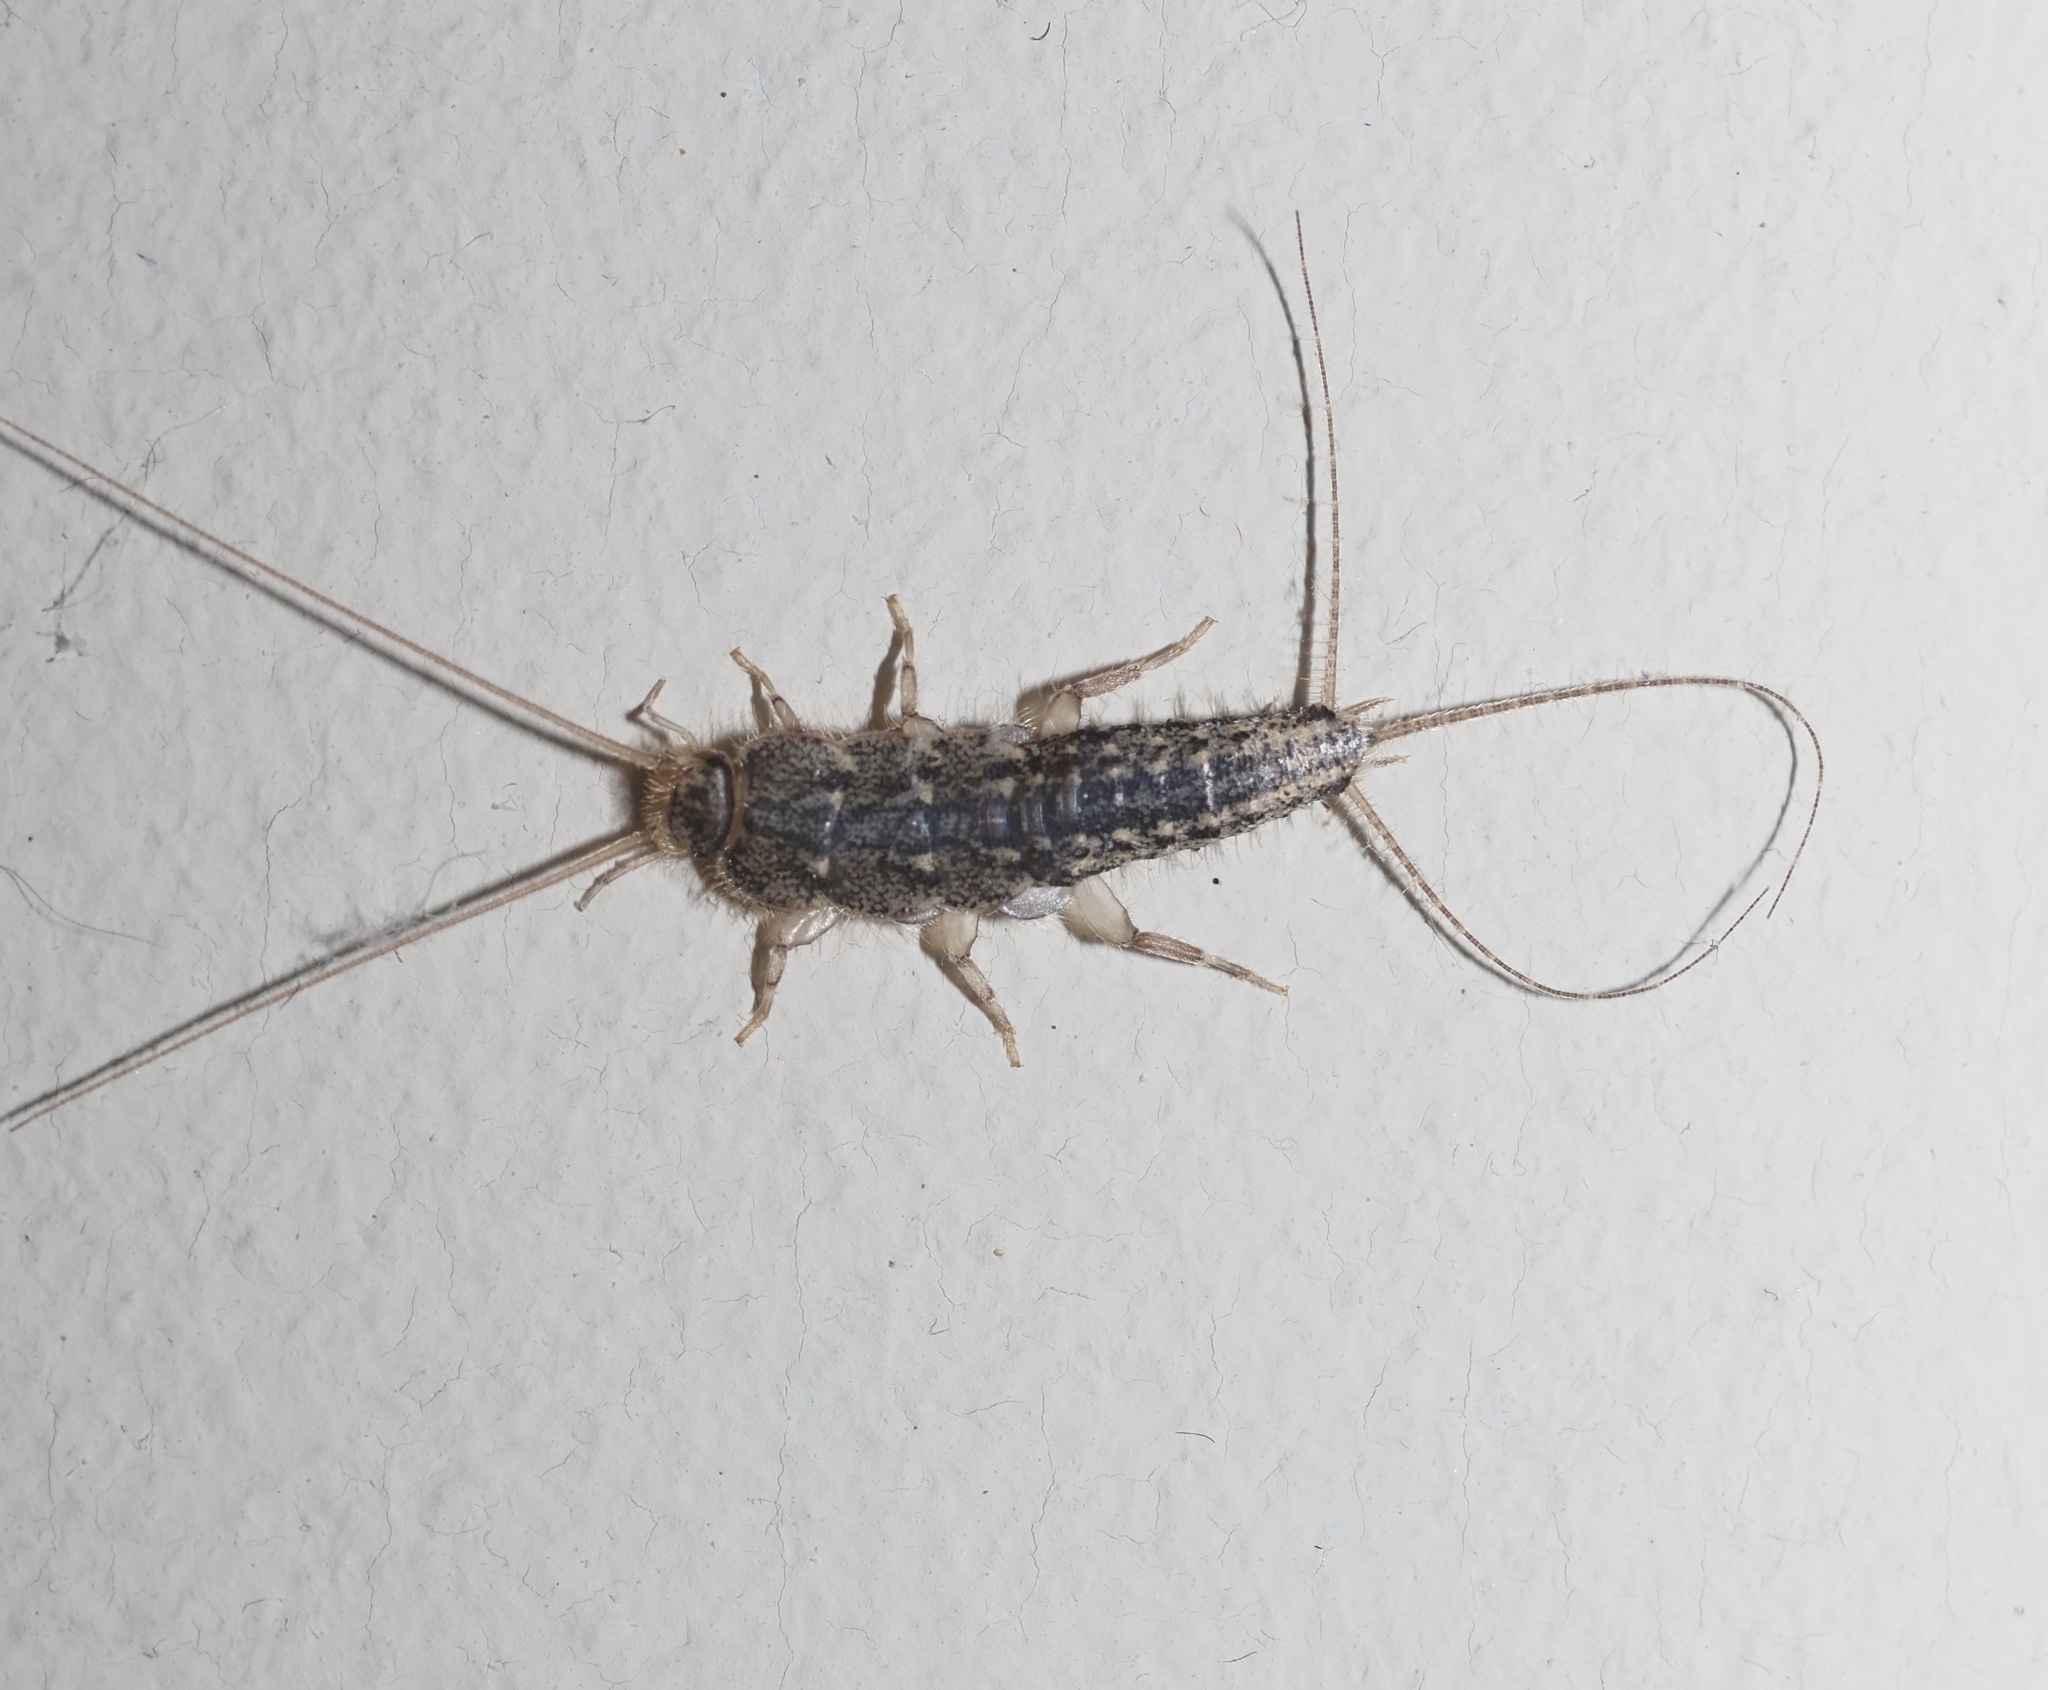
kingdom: Animalia
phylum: Arthropoda
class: Insecta
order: Zygentoma
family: Lepismatidae
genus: Ctenolepisma
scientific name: Ctenolepisma lineata
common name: Four-lined silverfish
